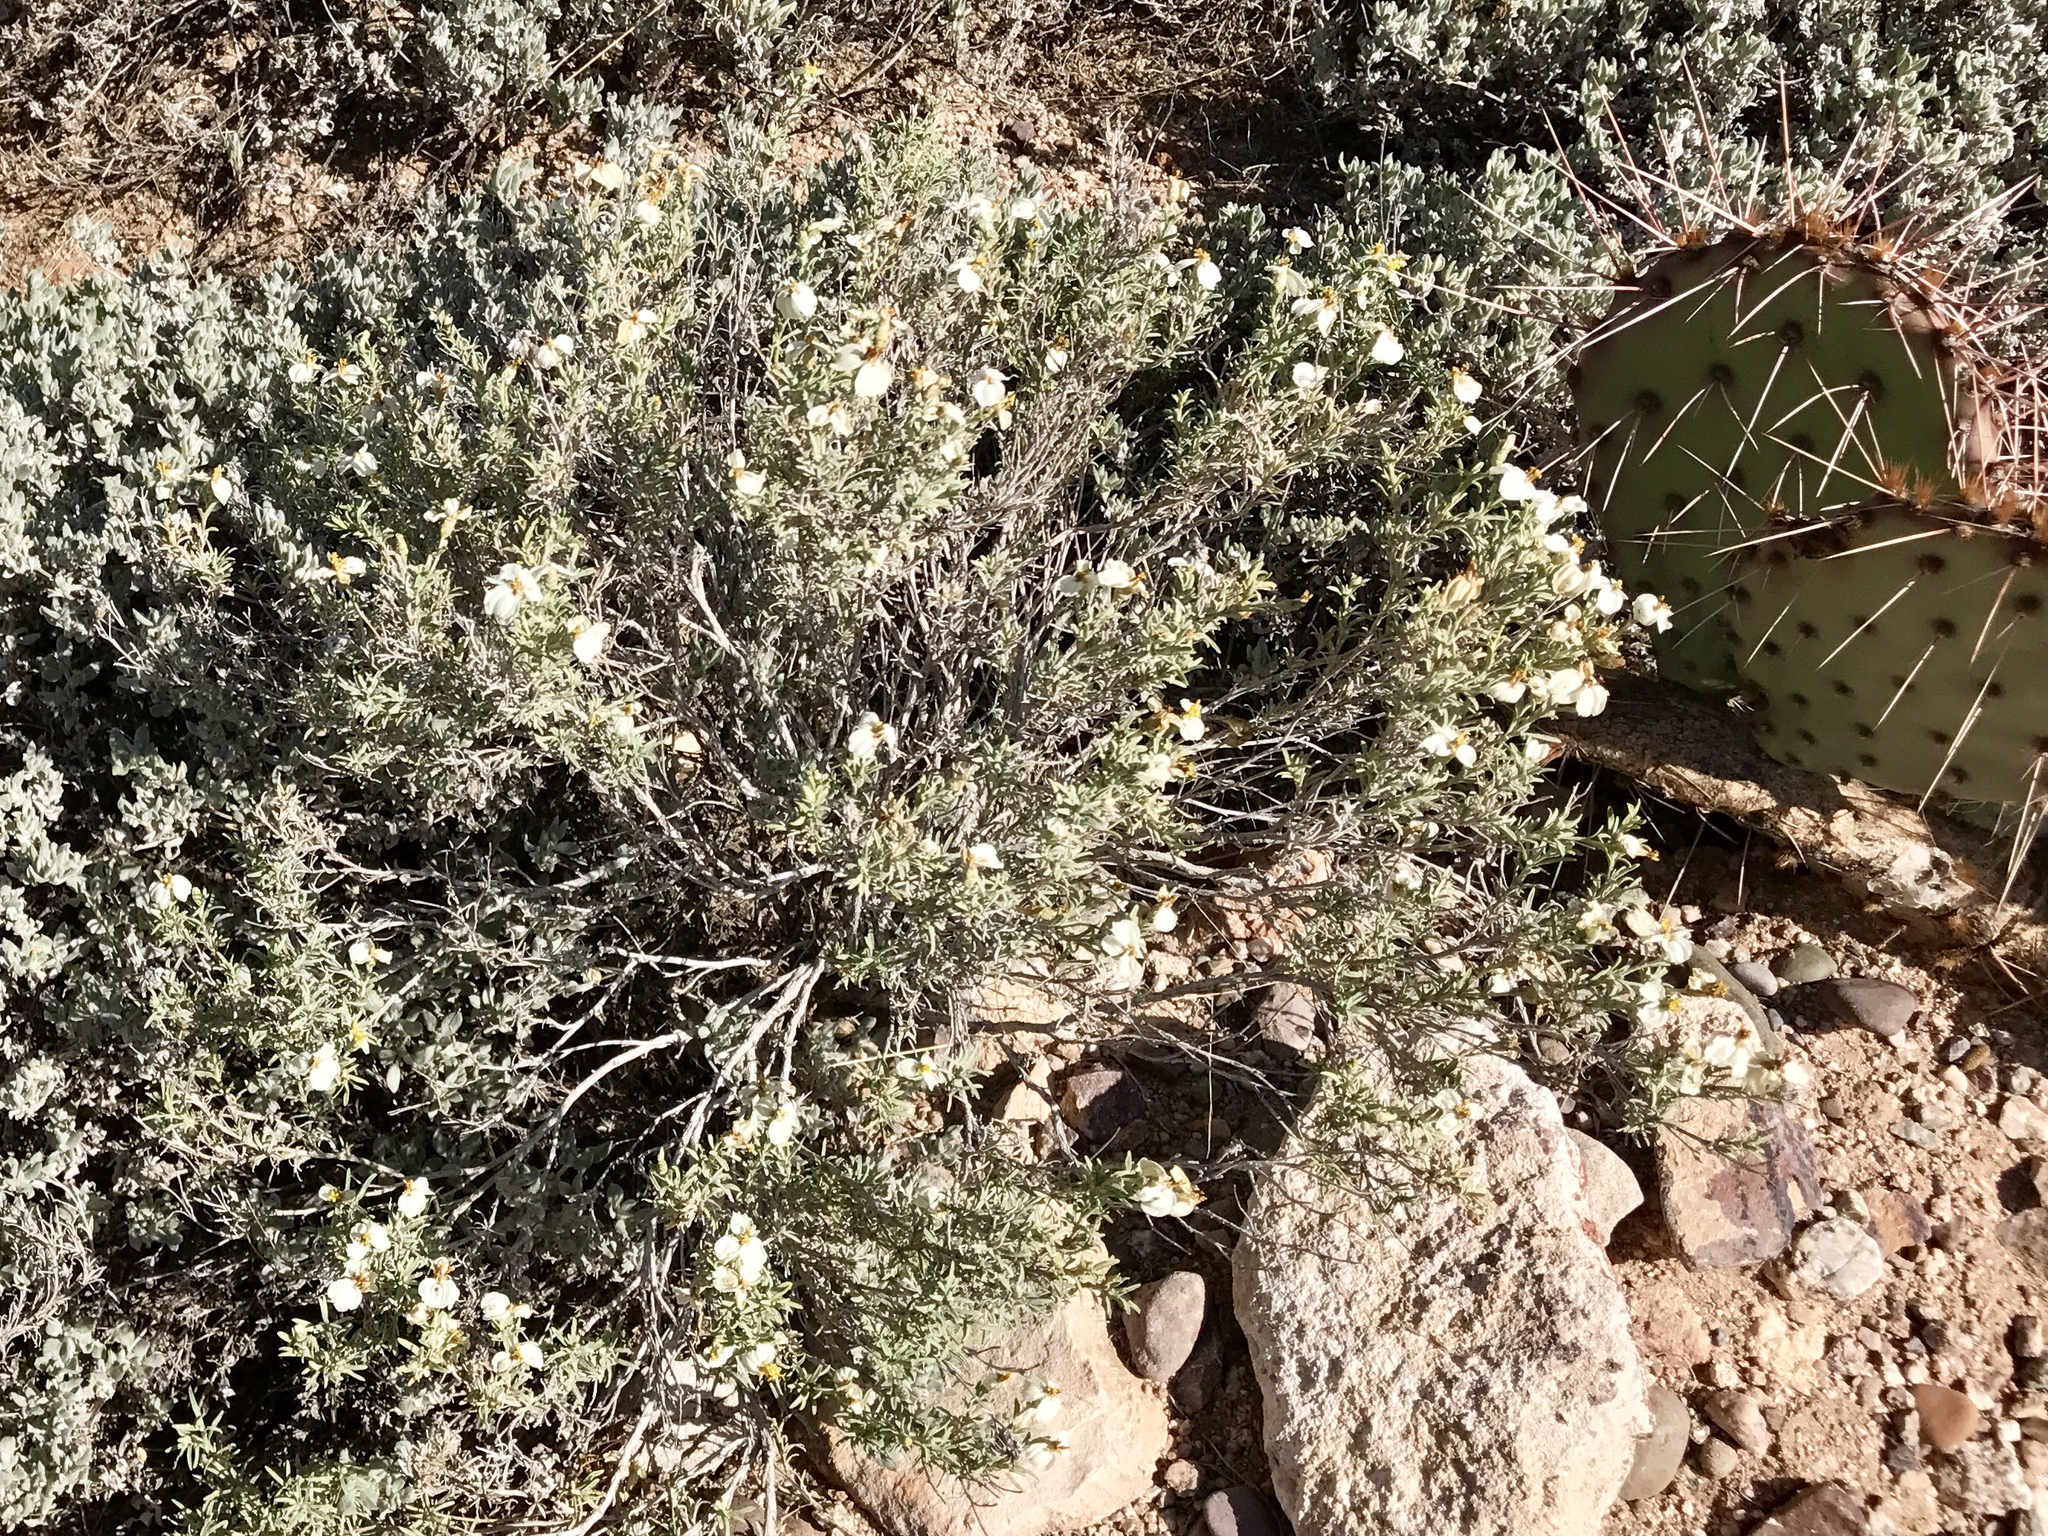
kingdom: Plantae
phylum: Tracheophyta
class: Magnoliopsida
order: Asterales
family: Asteraceae
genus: Zinnia
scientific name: Zinnia acerosa
